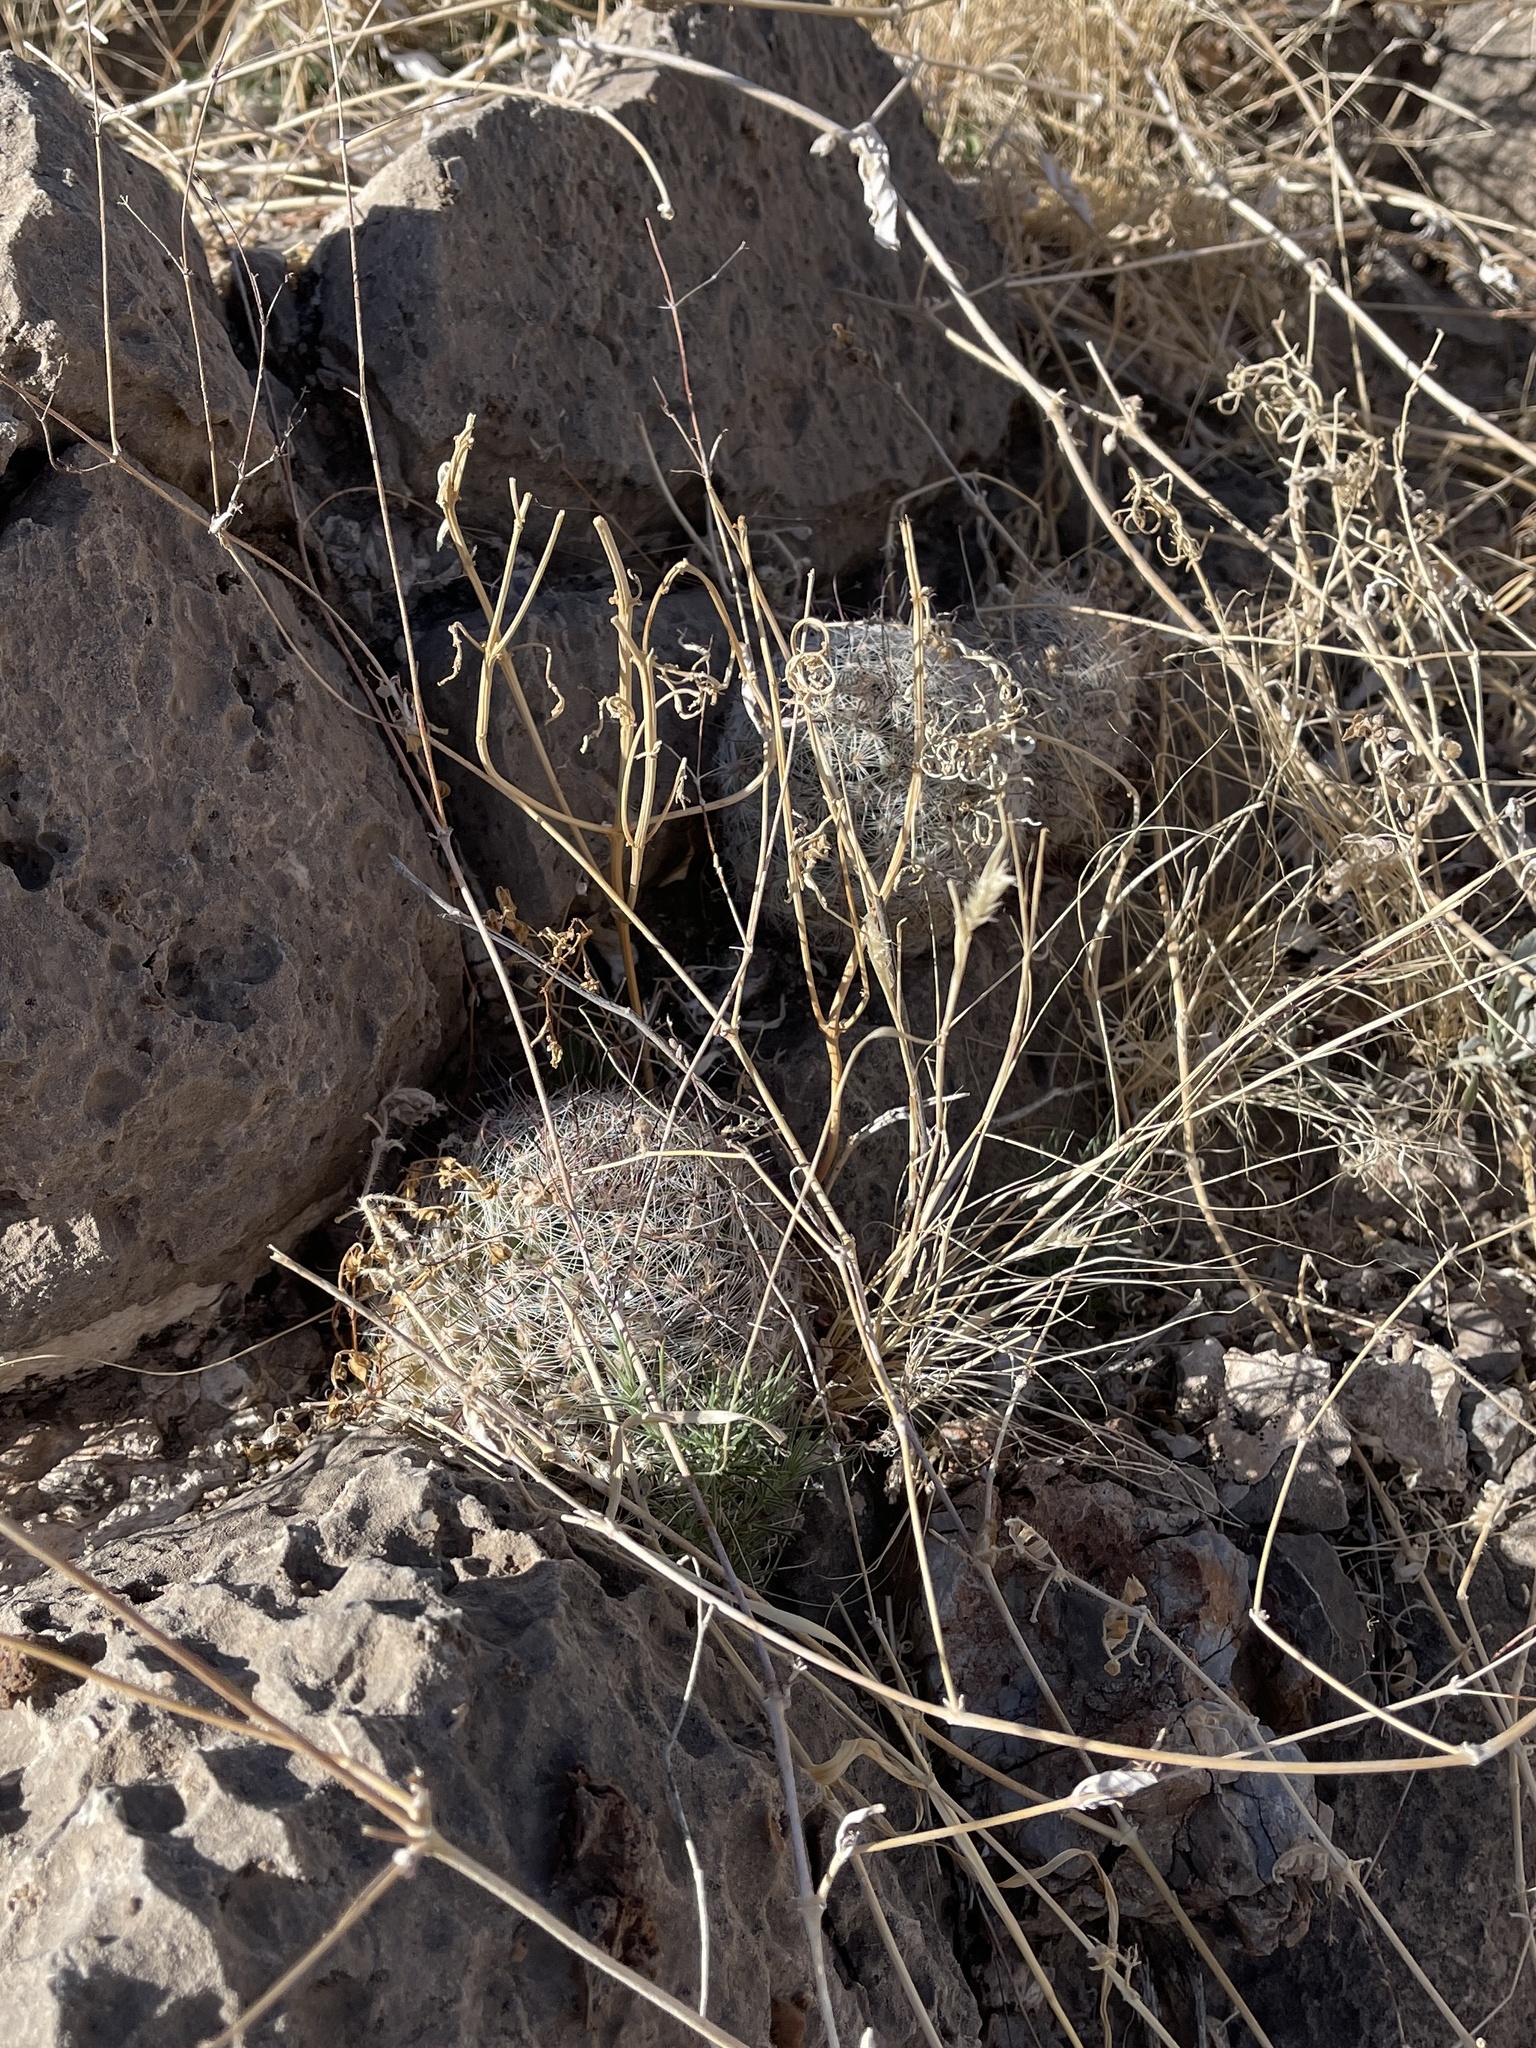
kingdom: Plantae
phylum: Tracheophyta
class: Magnoliopsida
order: Caryophyllales
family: Cactaceae
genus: Cochemiea
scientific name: Cochemiea grahamii
